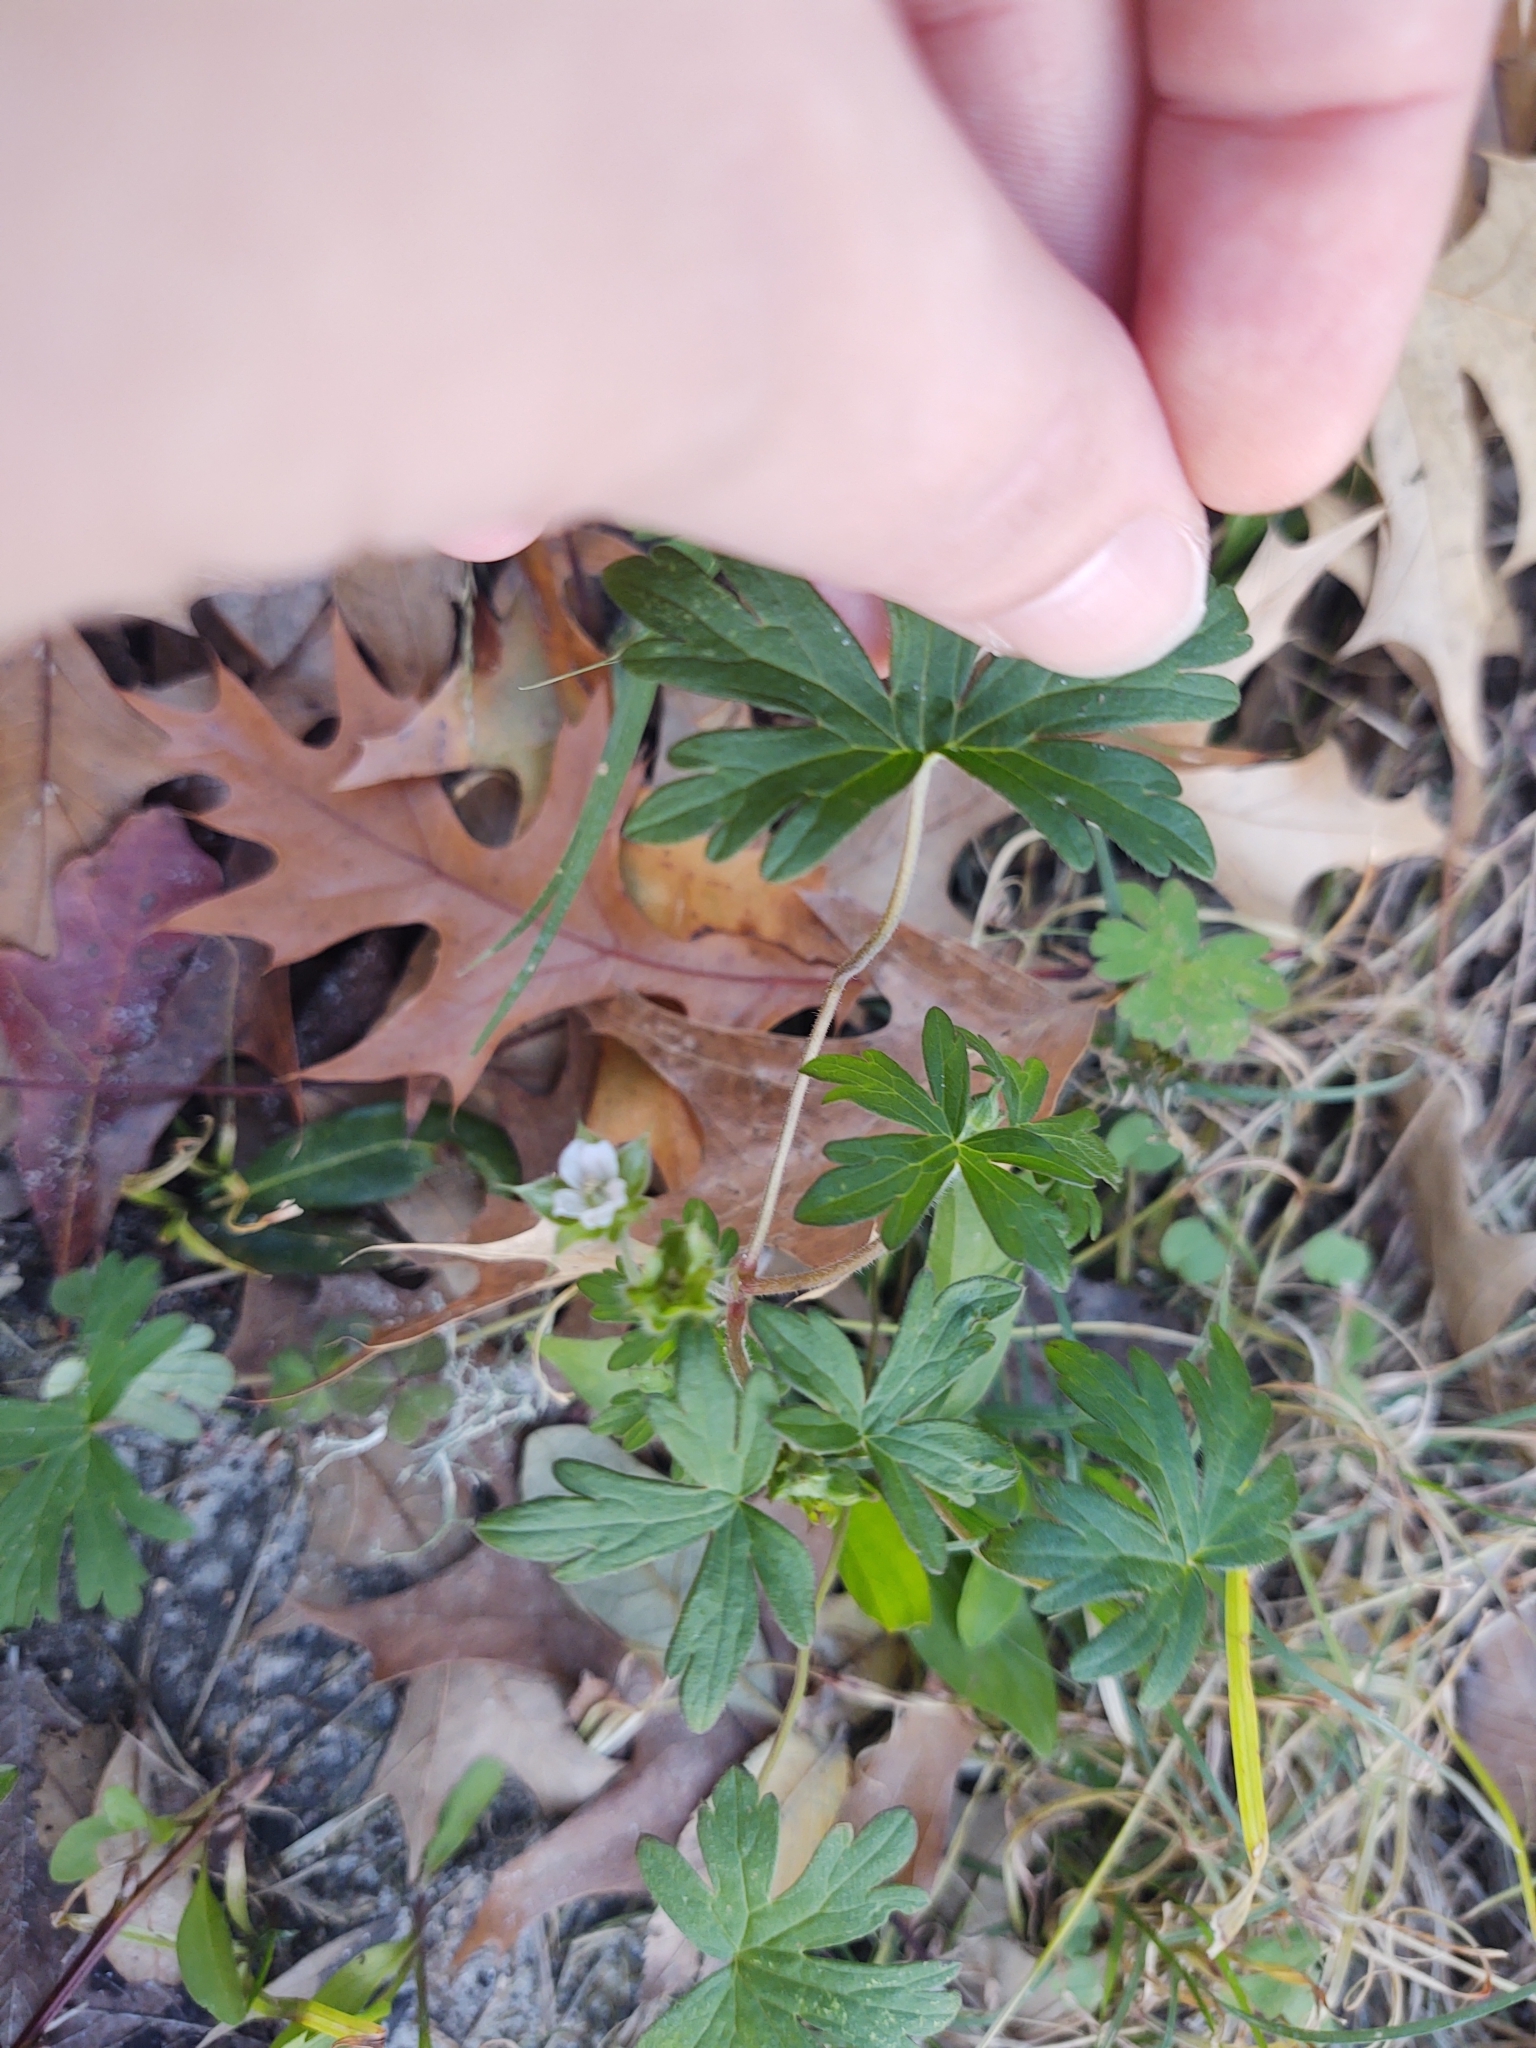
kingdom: Plantae
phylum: Tracheophyta
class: Magnoliopsida
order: Geraniales
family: Geraniaceae
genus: Geranium
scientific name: Geranium carolinianum
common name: Carolina crane's-bill
